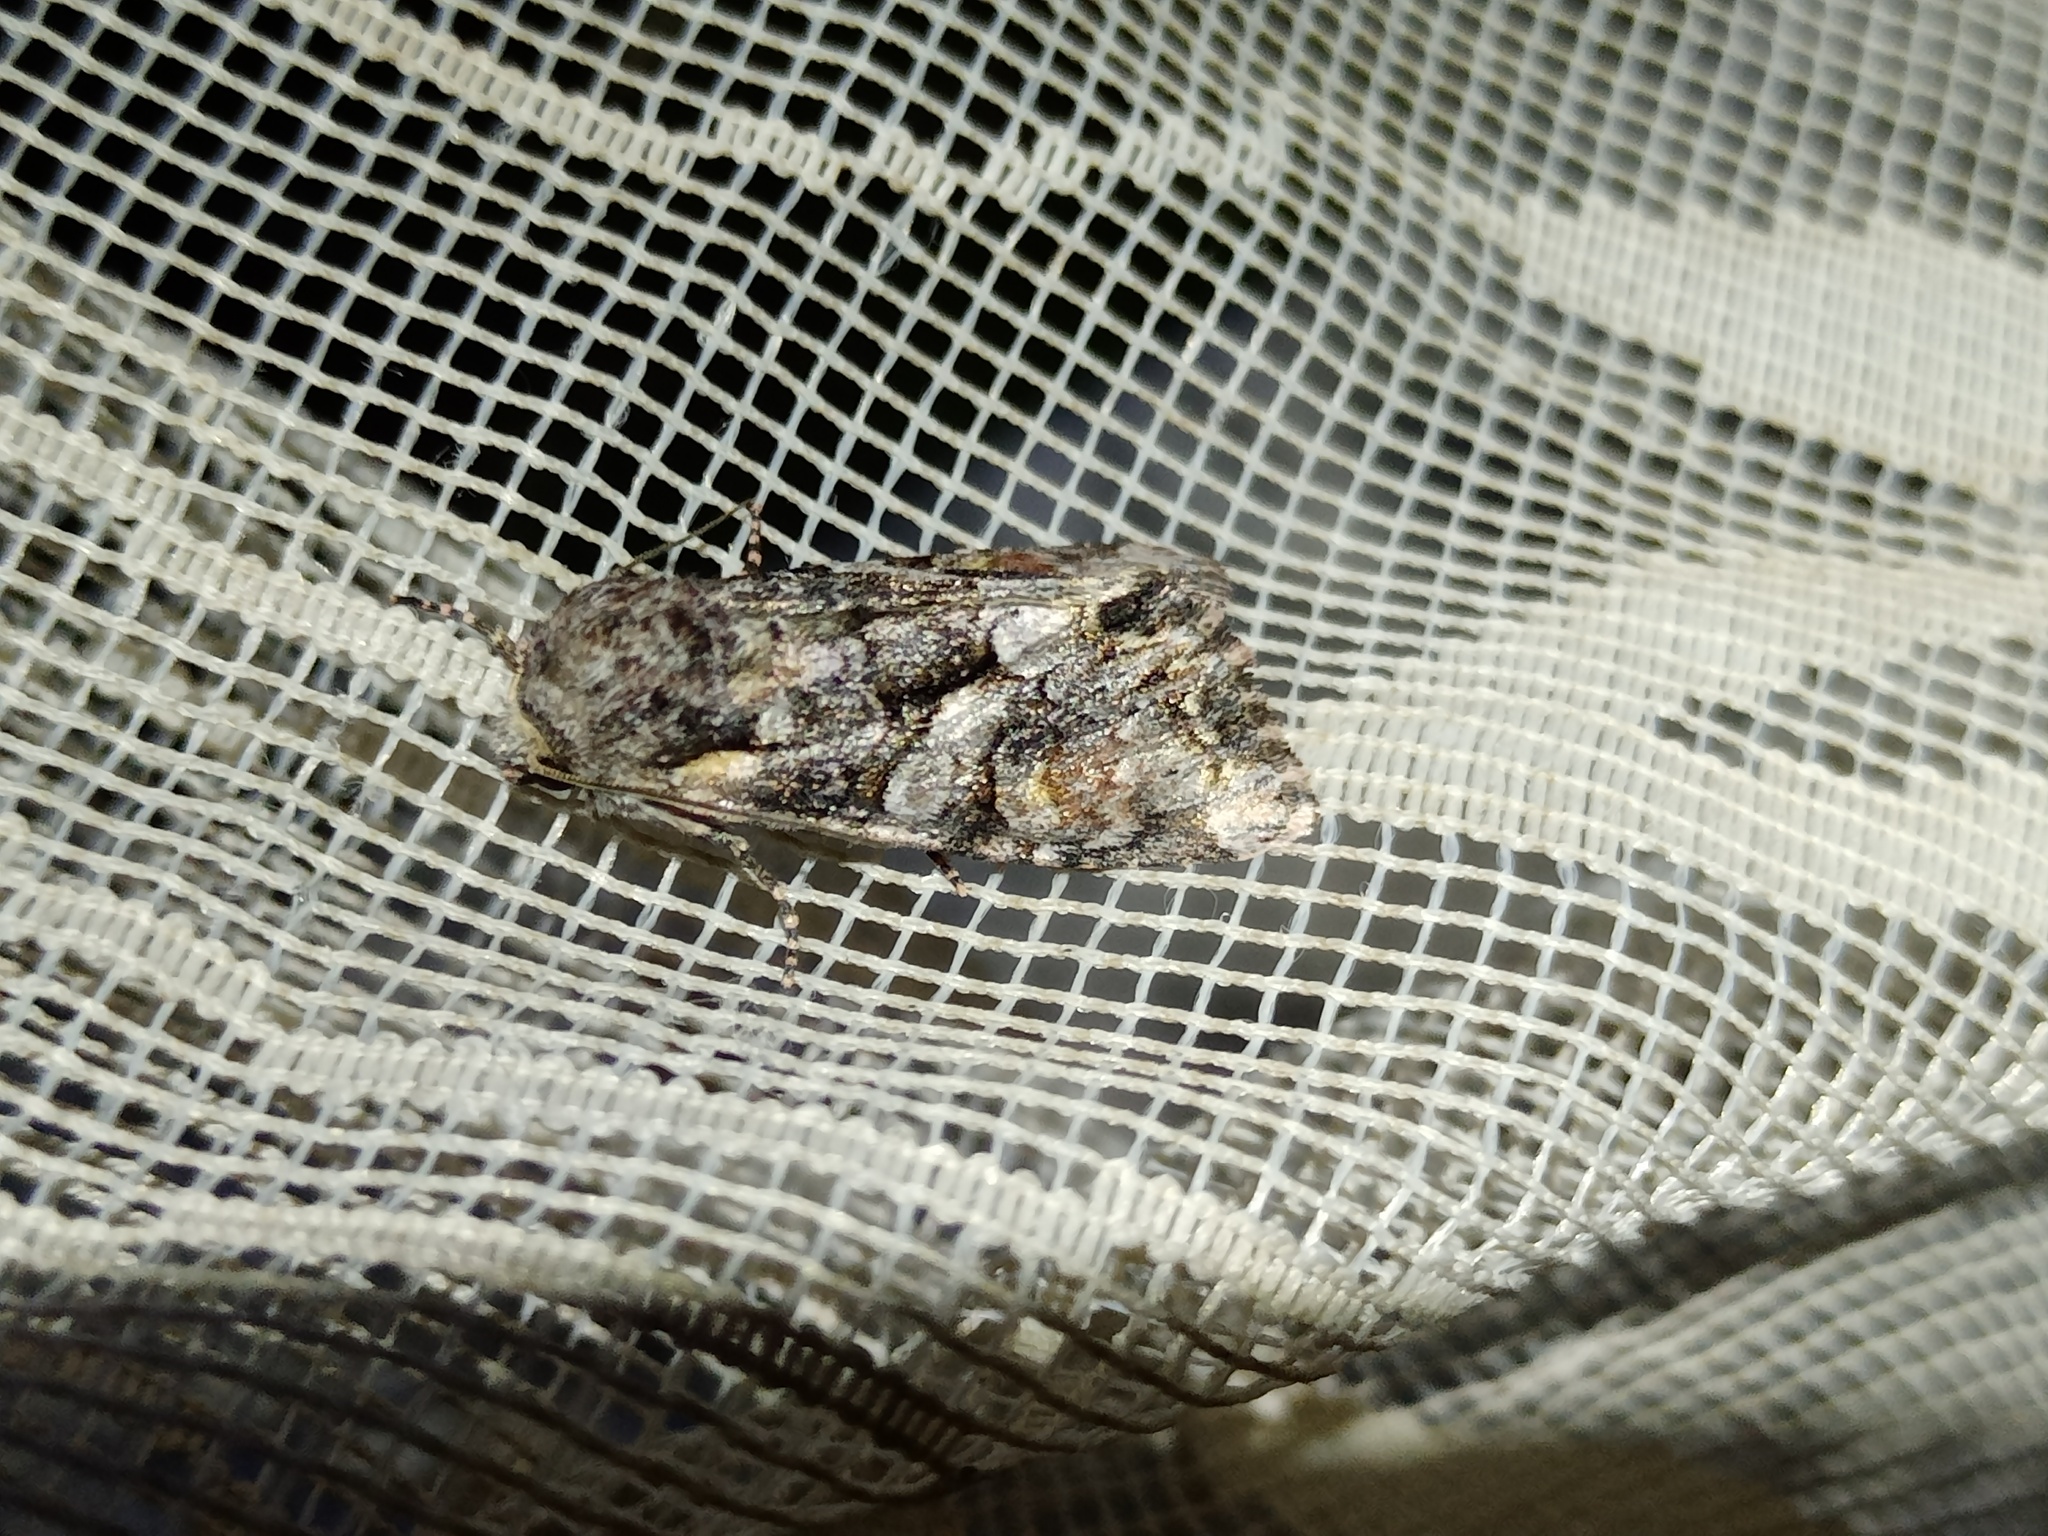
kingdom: Animalia
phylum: Arthropoda
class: Insecta
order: Lepidoptera
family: Noctuidae
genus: Lacanobia
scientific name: Lacanobia contigua
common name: Beautiful brocade
